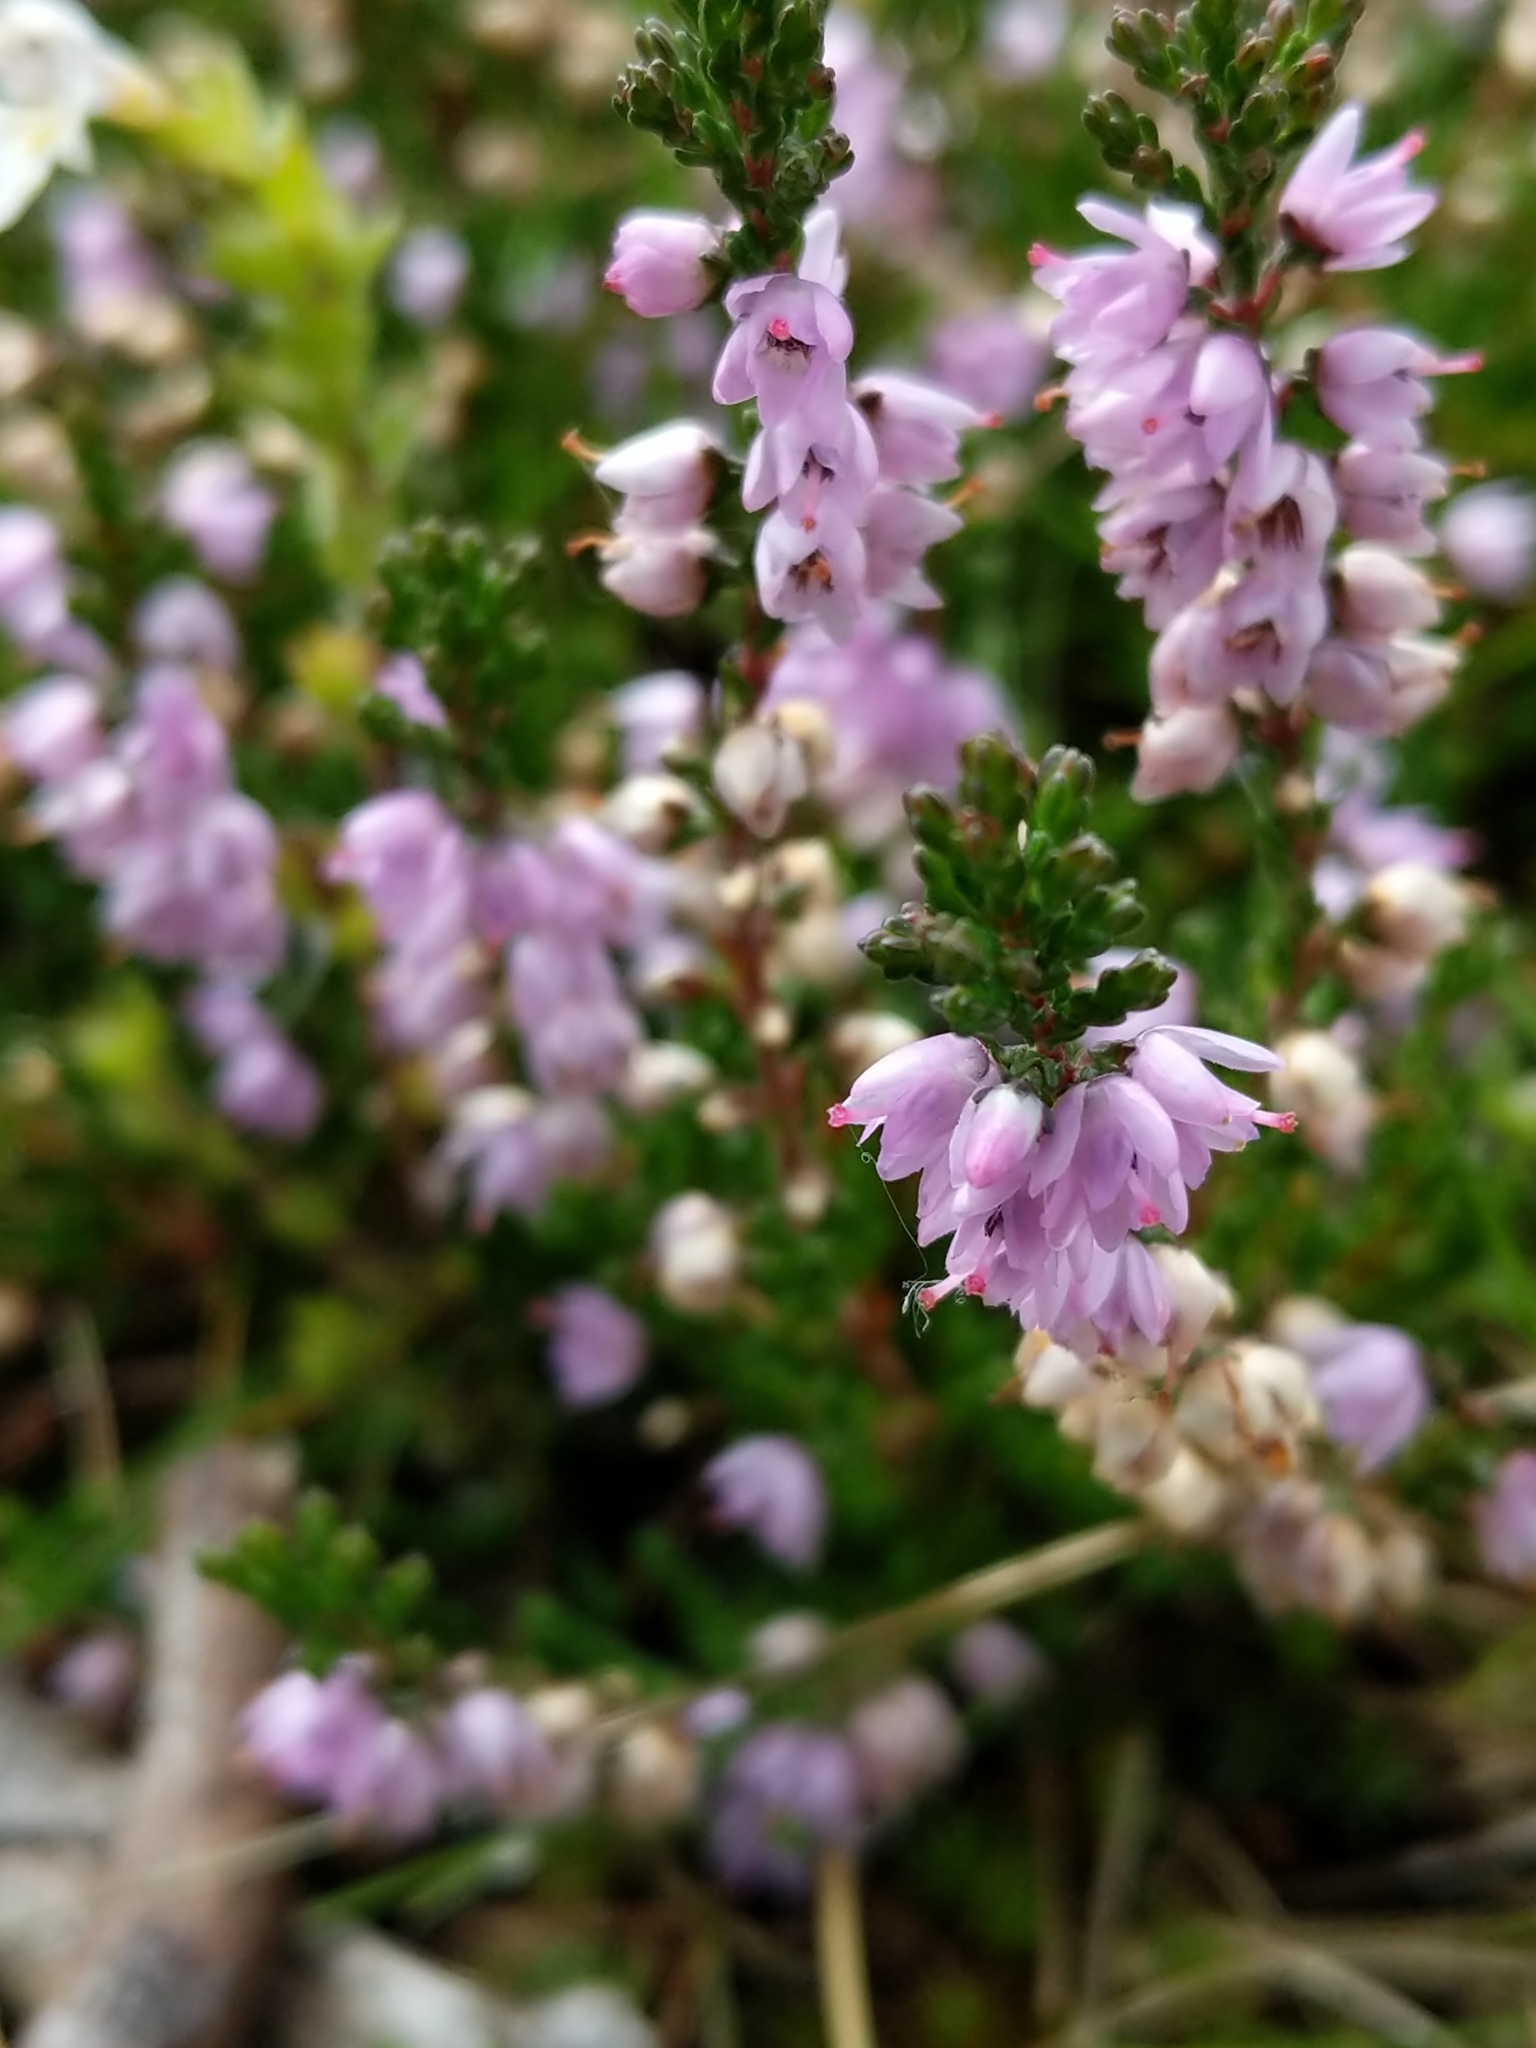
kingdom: Plantae
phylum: Tracheophyta
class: Magnoliopsida
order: Ericales
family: Ericaceae
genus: Calluna
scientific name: Calluna vulgaris
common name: Heather
